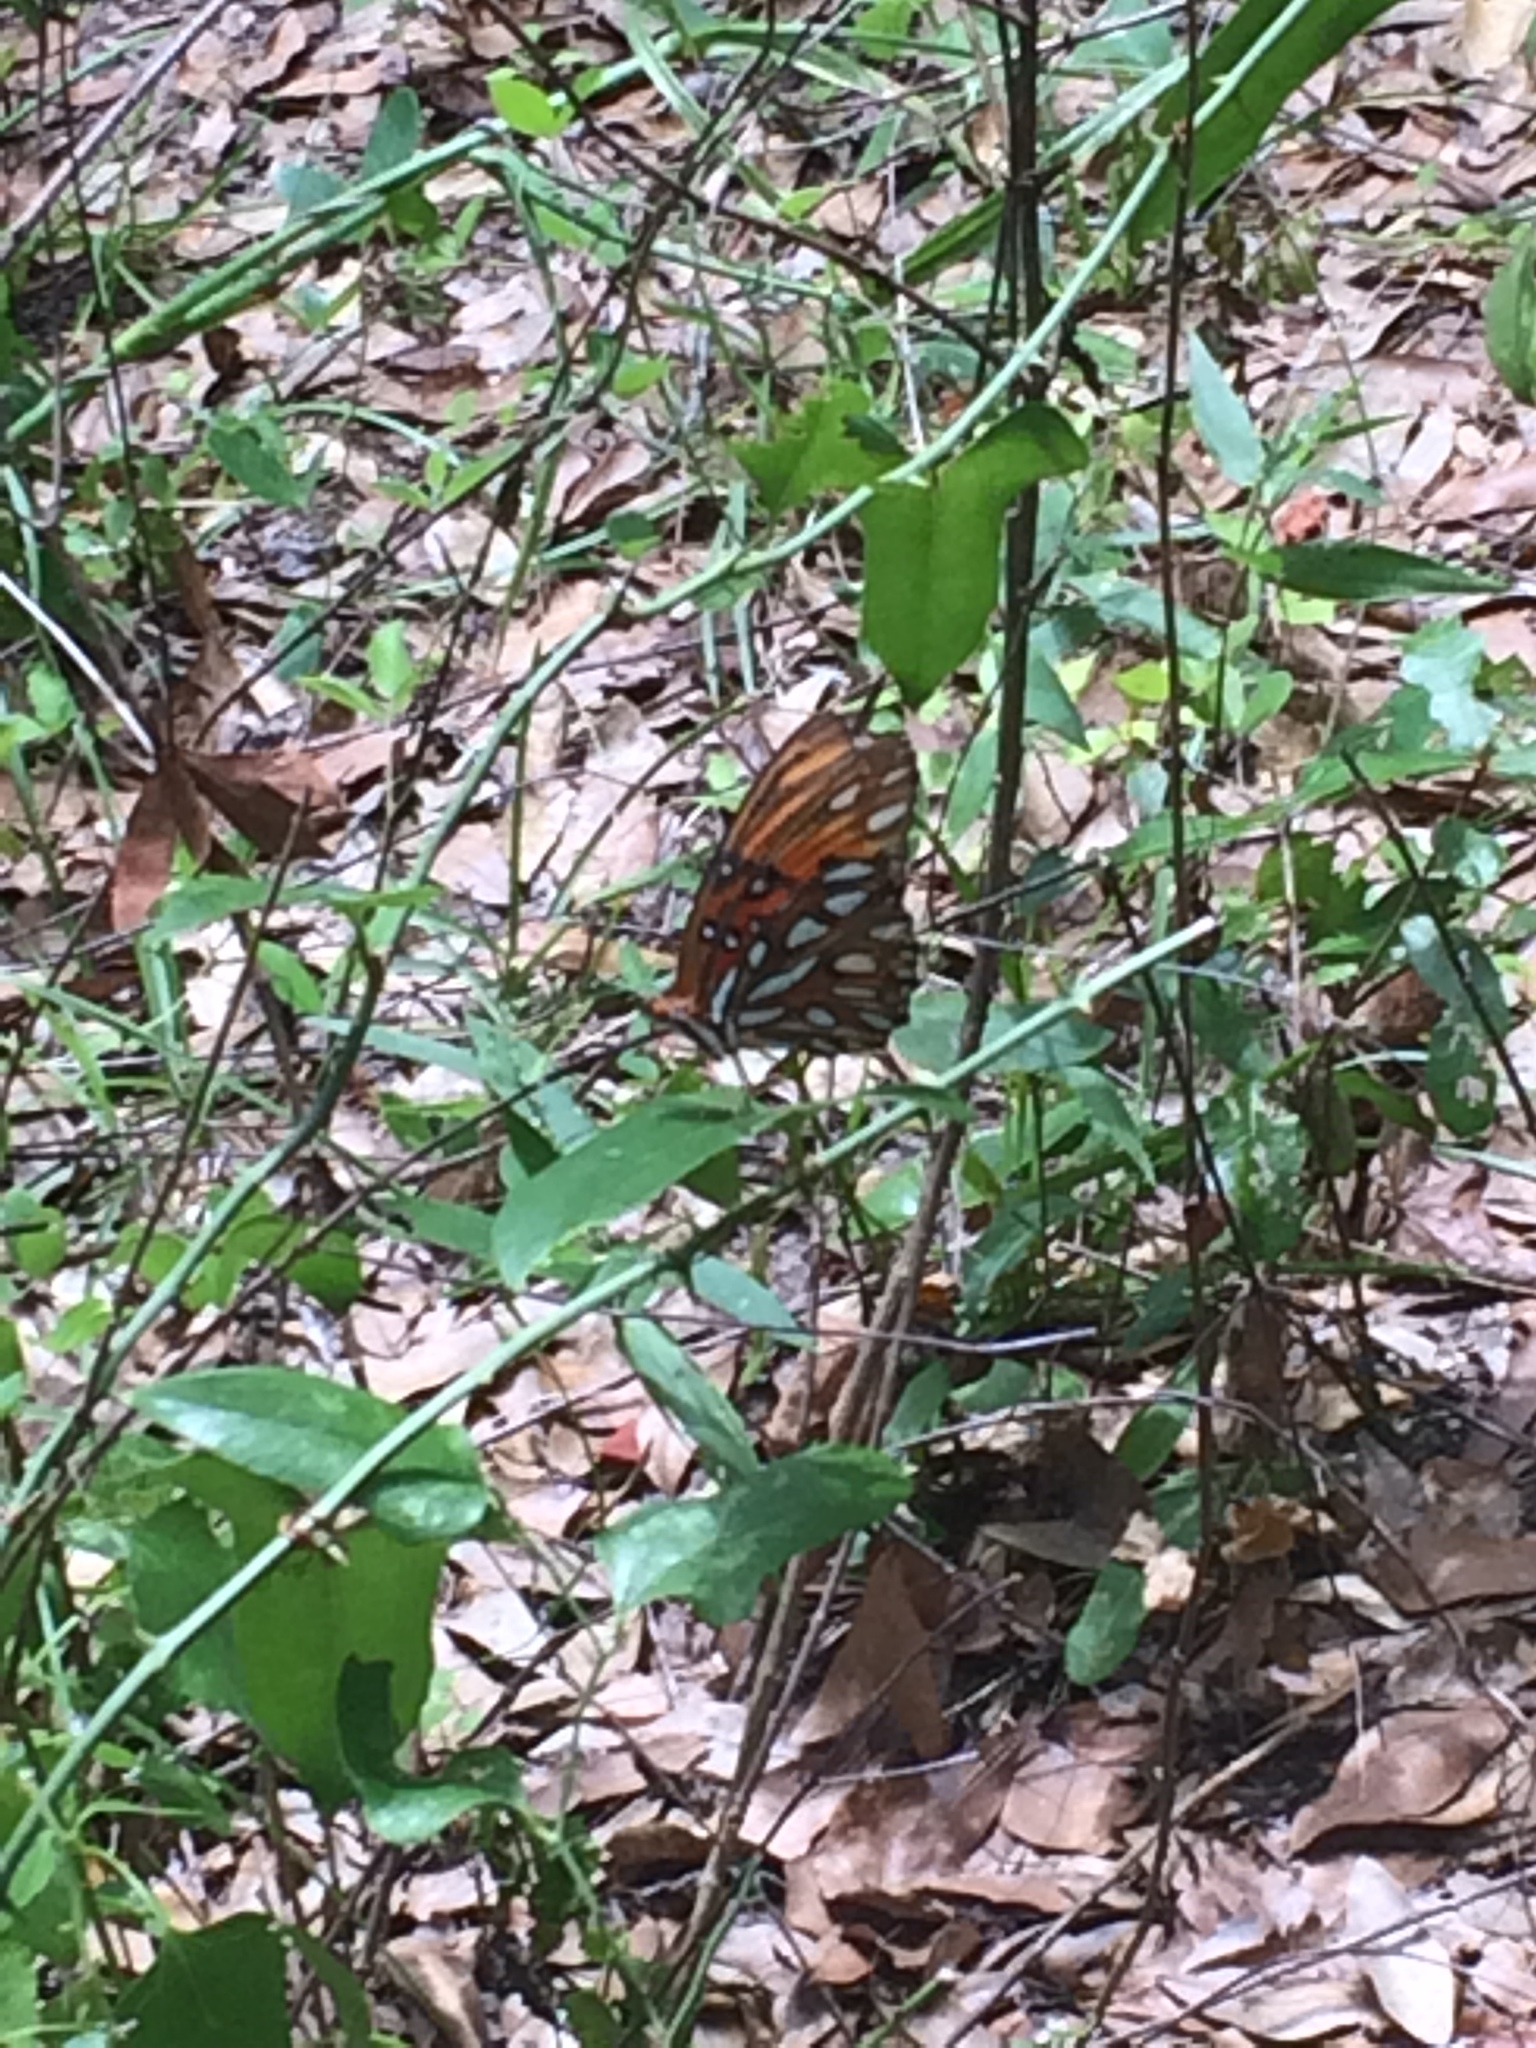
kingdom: Animalia
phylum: Arthropoda
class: Insecta
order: Lepidoptera
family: Nymphalidae
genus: Dione
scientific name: Dione vanillae
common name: Gulf fritillary
